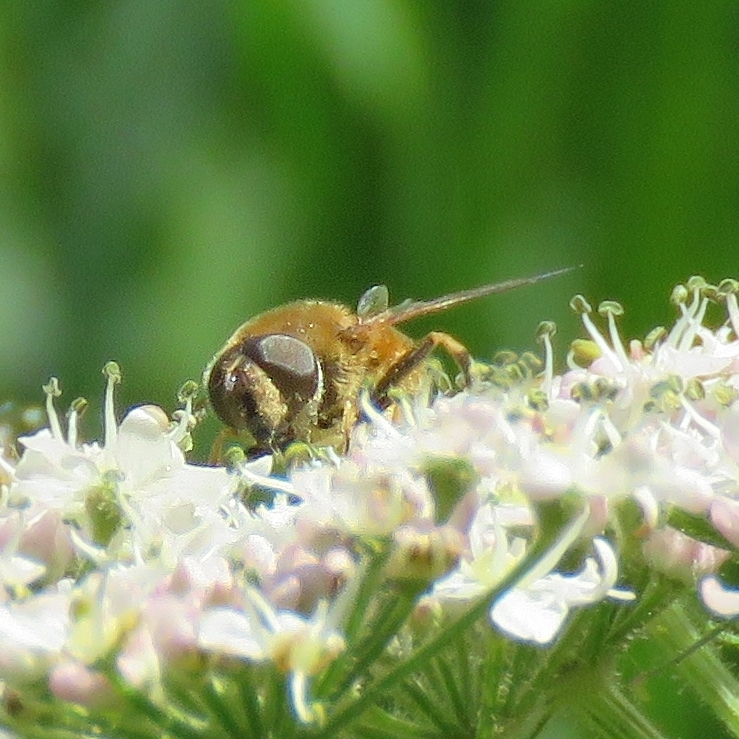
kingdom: Animalia
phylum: Arthropoda
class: Insecta
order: Diptera
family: Syrphidae
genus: Eristalis
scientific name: Eristalis pertinax
